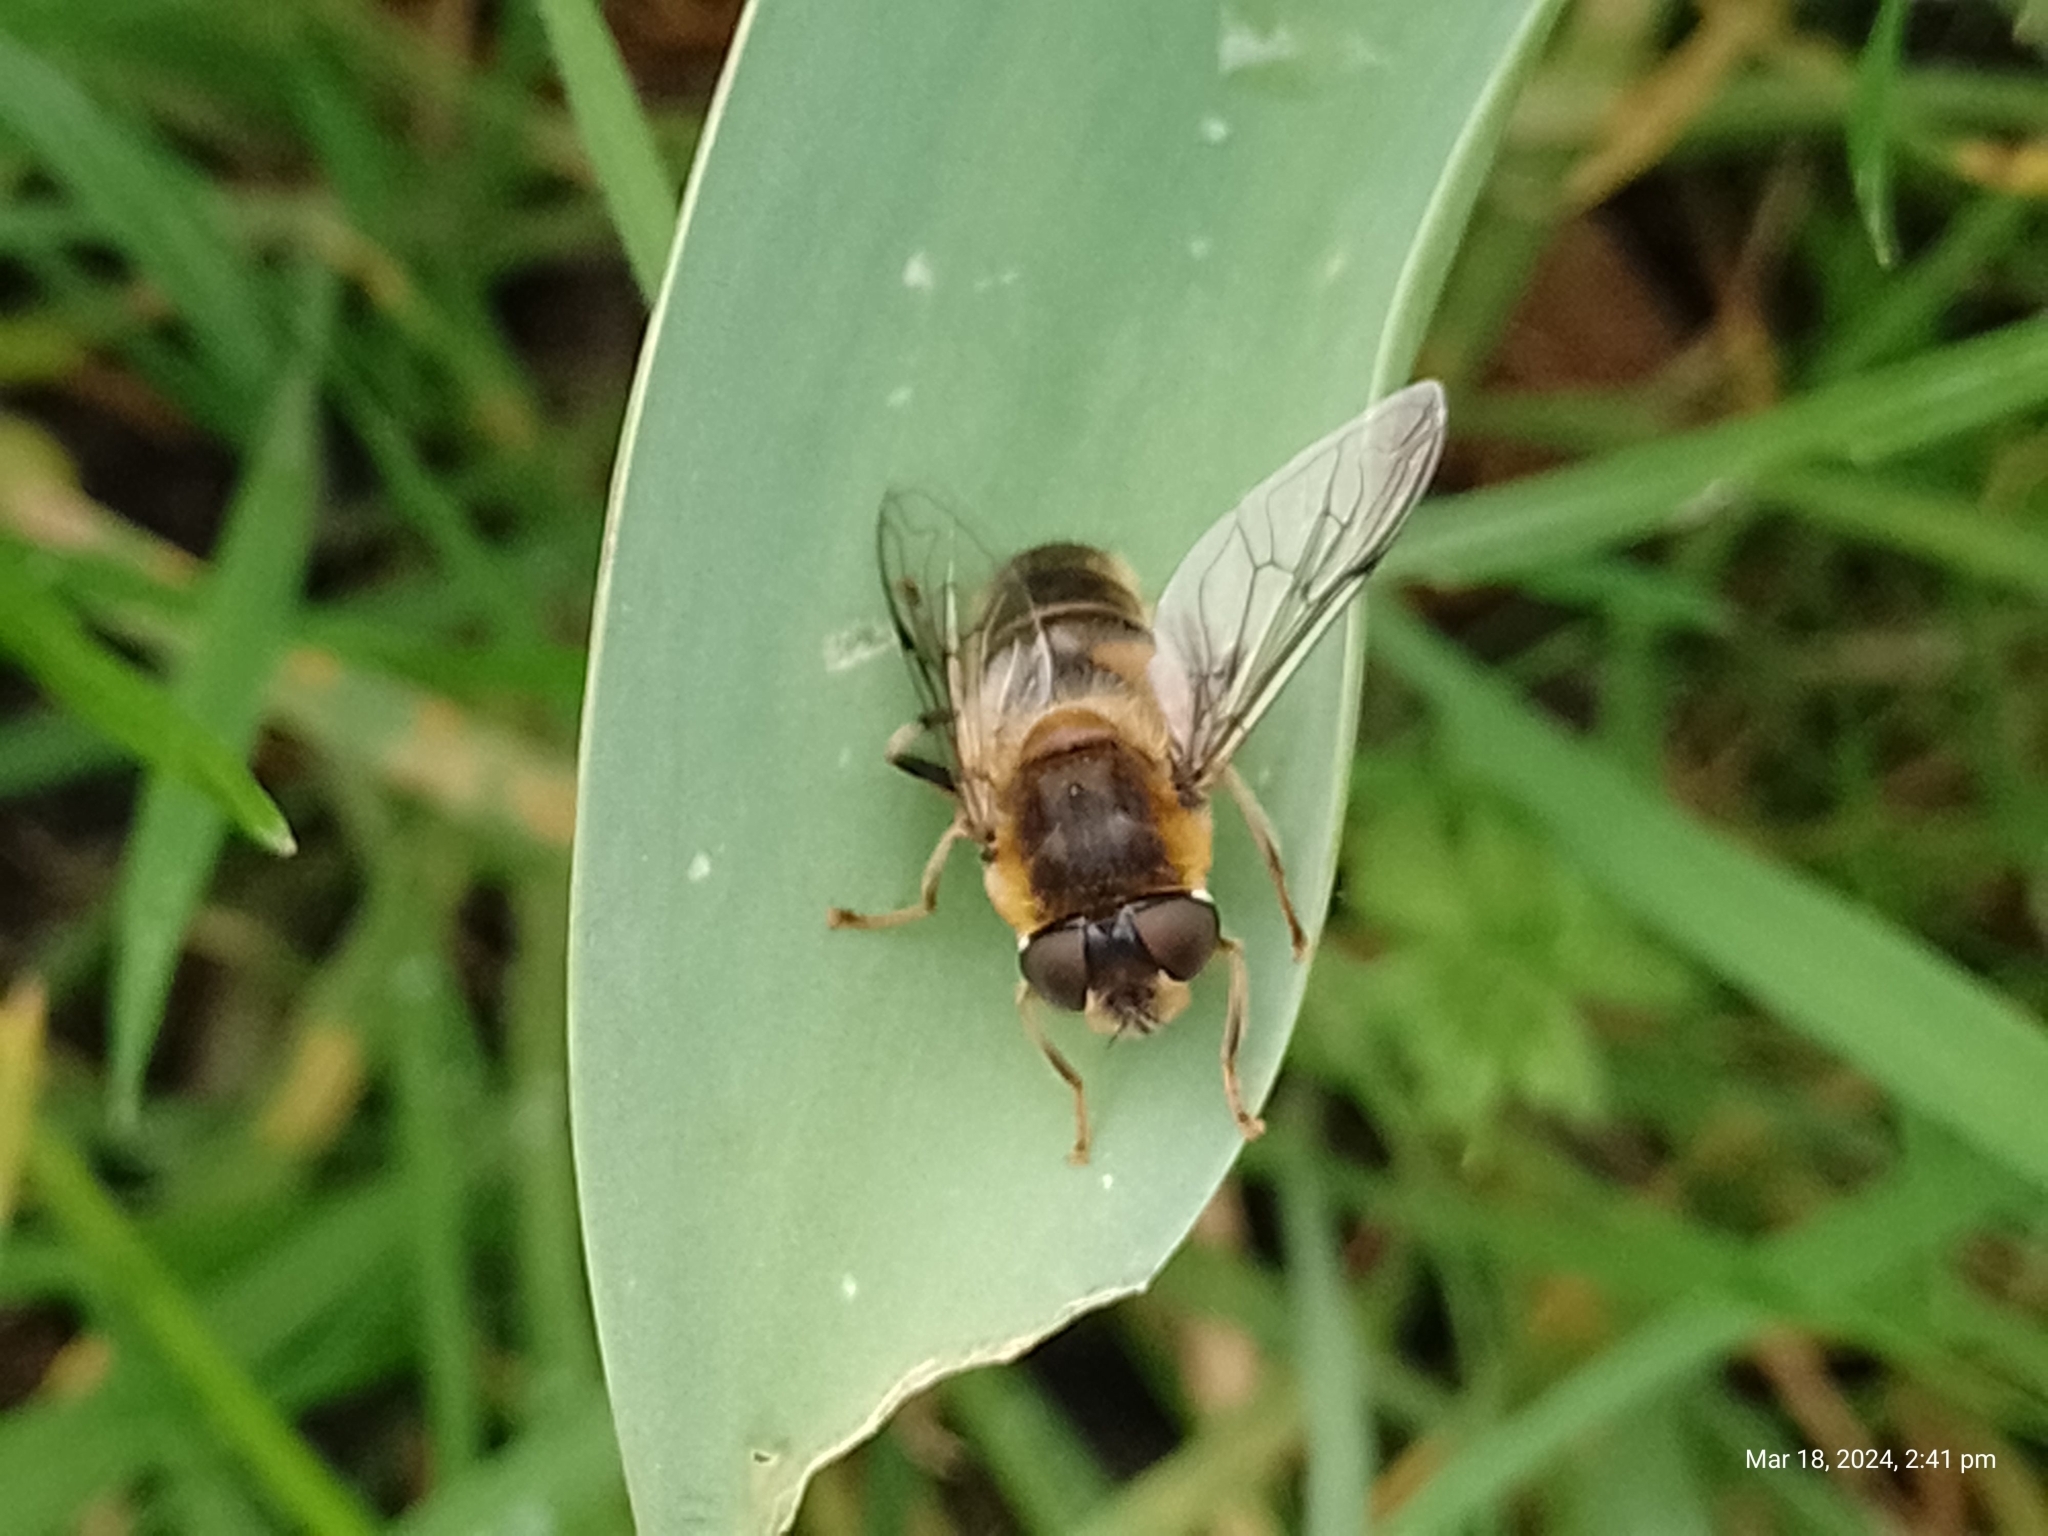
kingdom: Animalia
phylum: Arthropoda
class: Insecta
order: Diptera
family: Syrphidae
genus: Eristalis
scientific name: Eristalis pertinax
